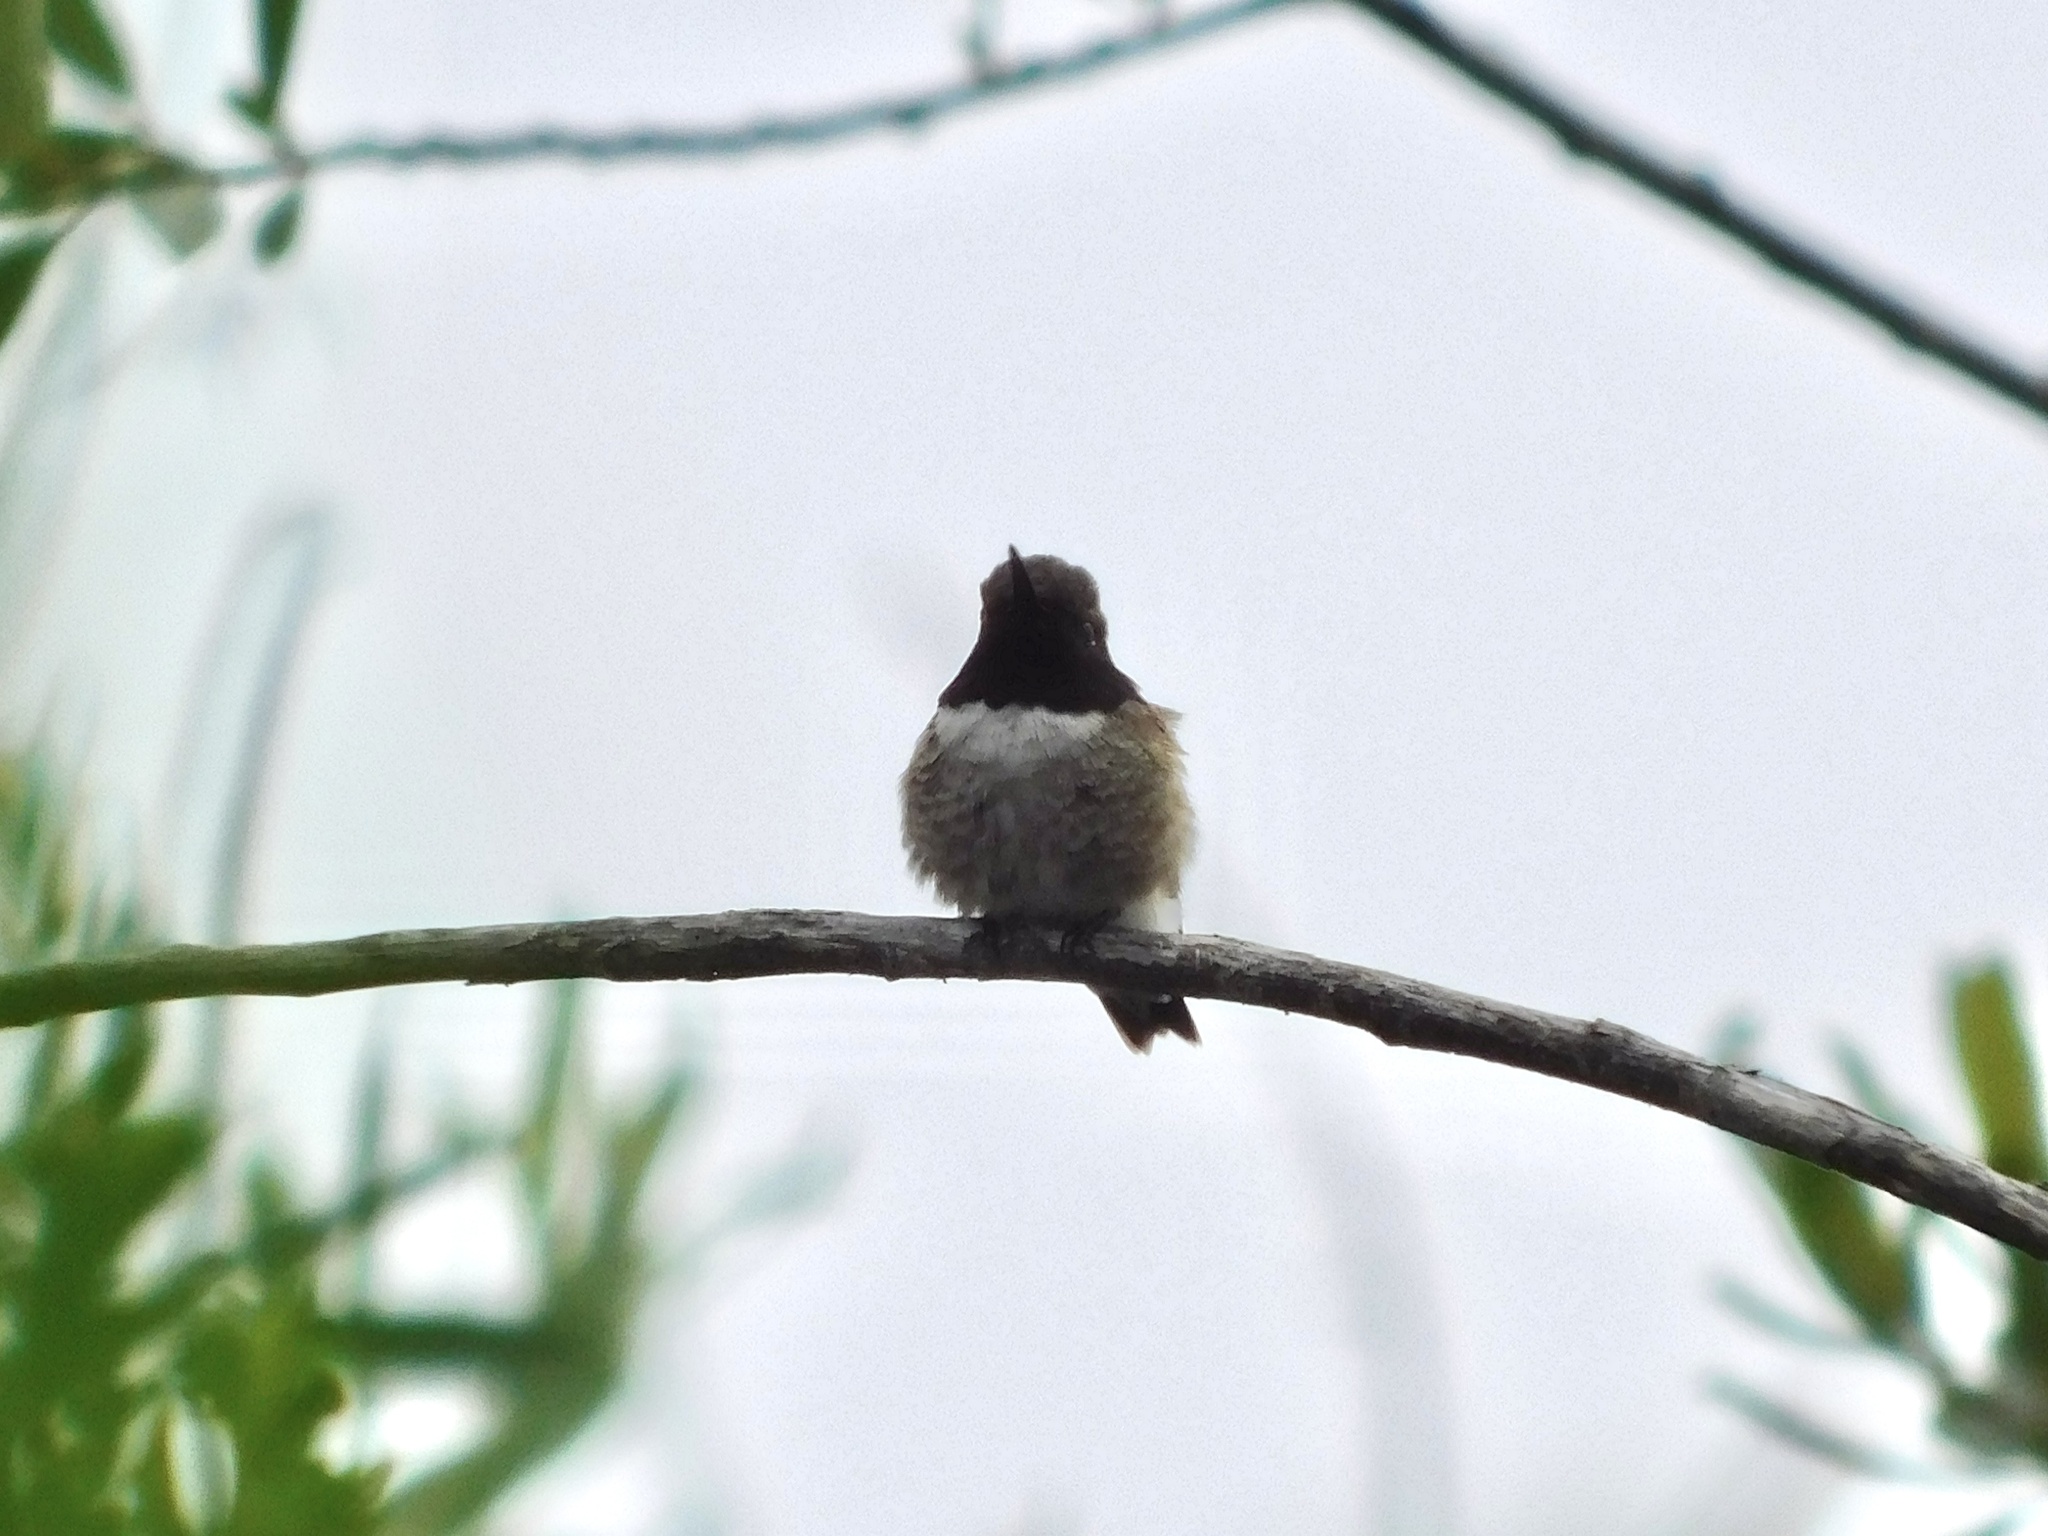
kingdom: Animalia
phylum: Chordata
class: Aves
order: Apodiformes
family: Trochilidae
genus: Archilochus
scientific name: Archilochus alexandri
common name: Black-chinned hummingbird
